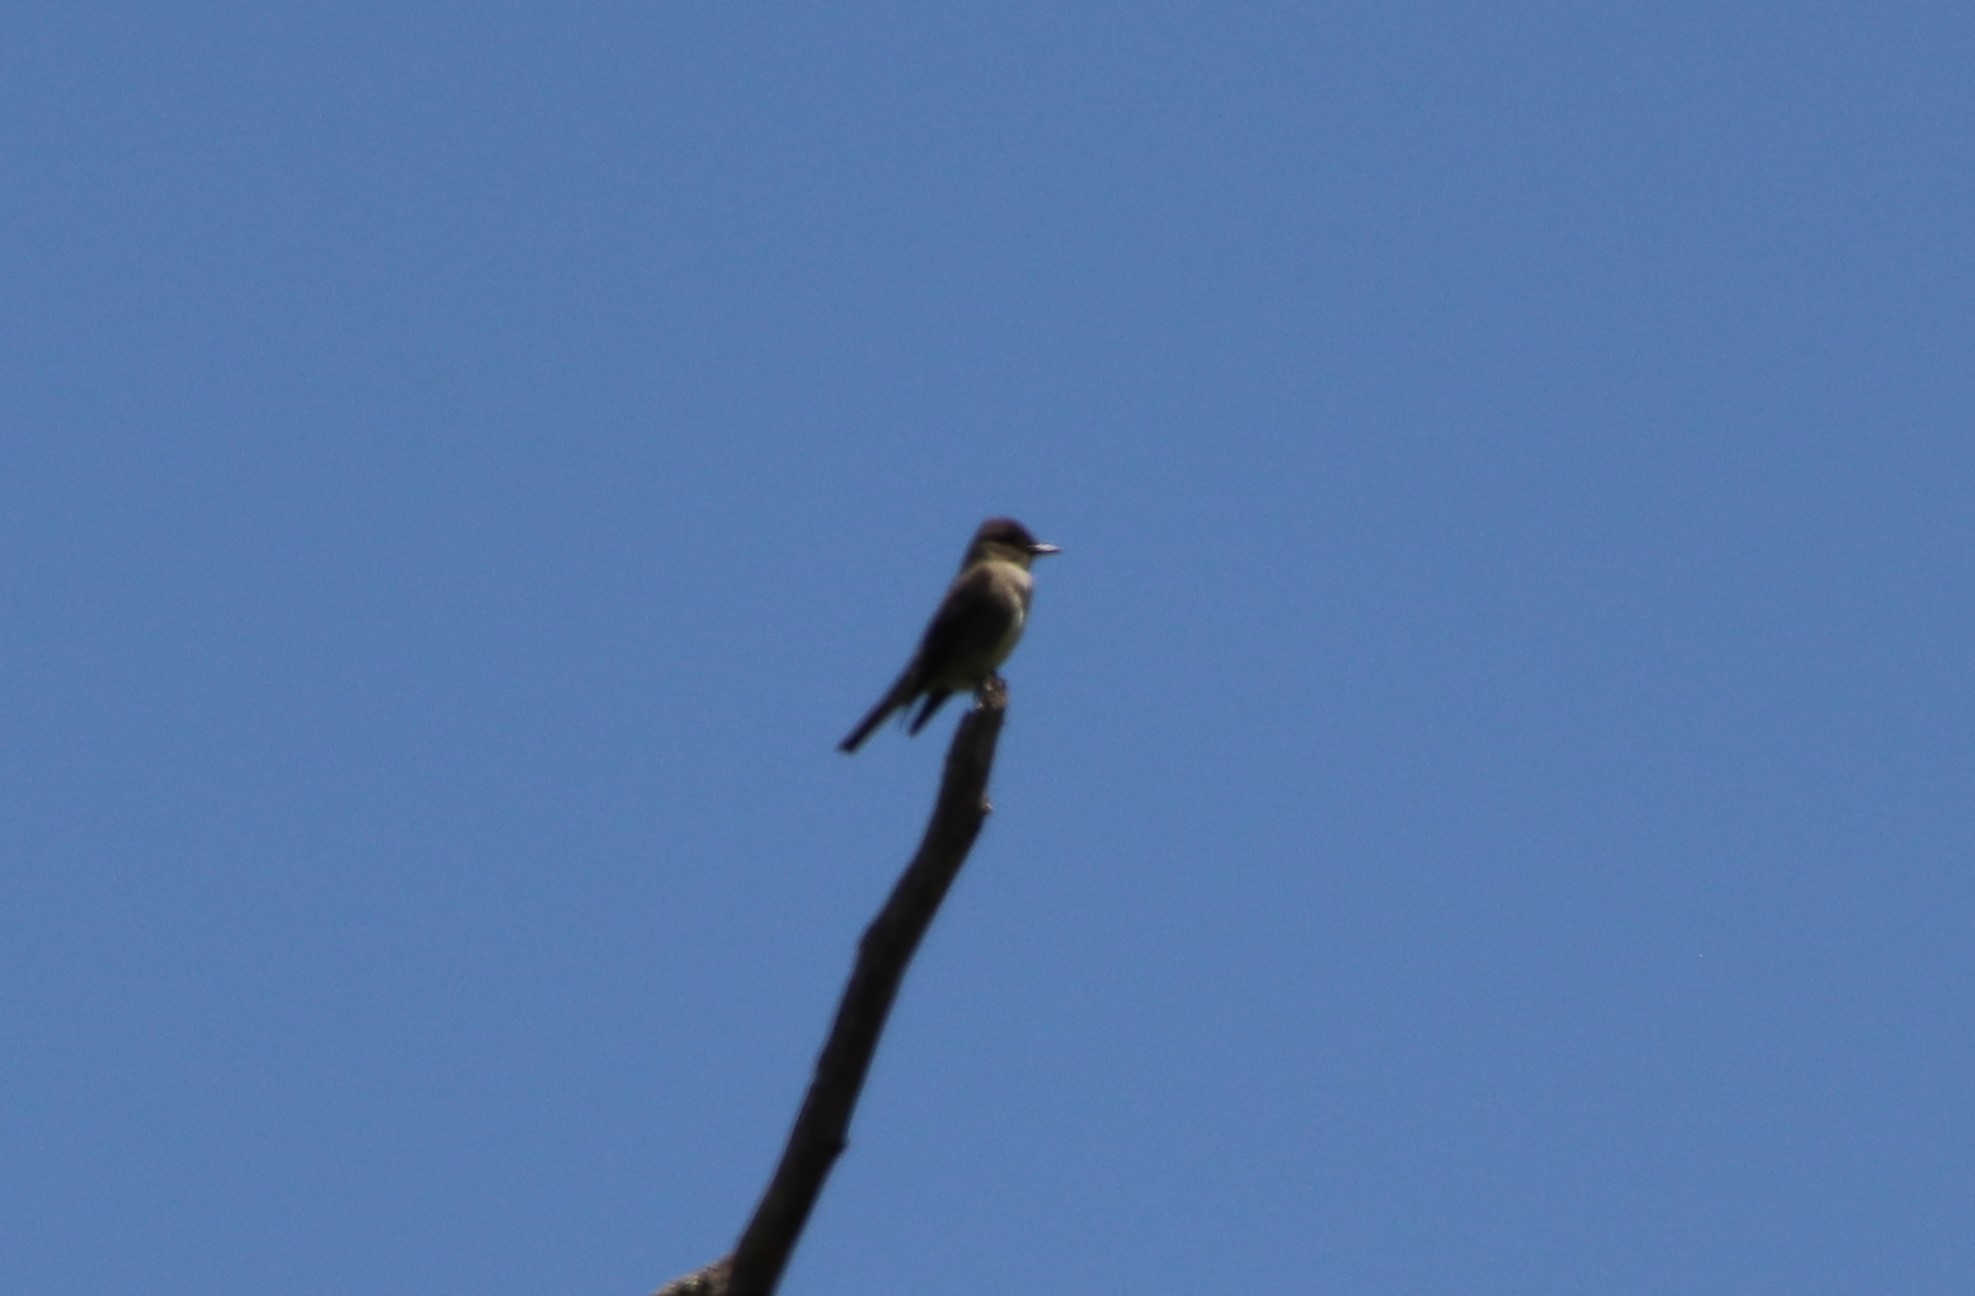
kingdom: Animalia
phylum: Chordata
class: Aves
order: Passeriformes
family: Tyrannidae
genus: Contopus
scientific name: Contopus cooperi
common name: Olive-sided flycatcher
